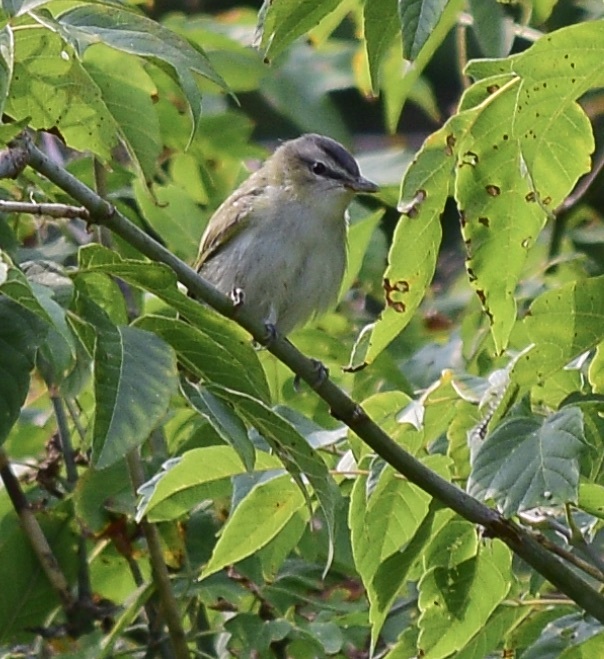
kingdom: Animalia
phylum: Chordata
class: Aves
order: Passeriformes
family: Vireonidae
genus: Vireo
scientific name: Vireo olivaceus
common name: Red-eyed vireo
